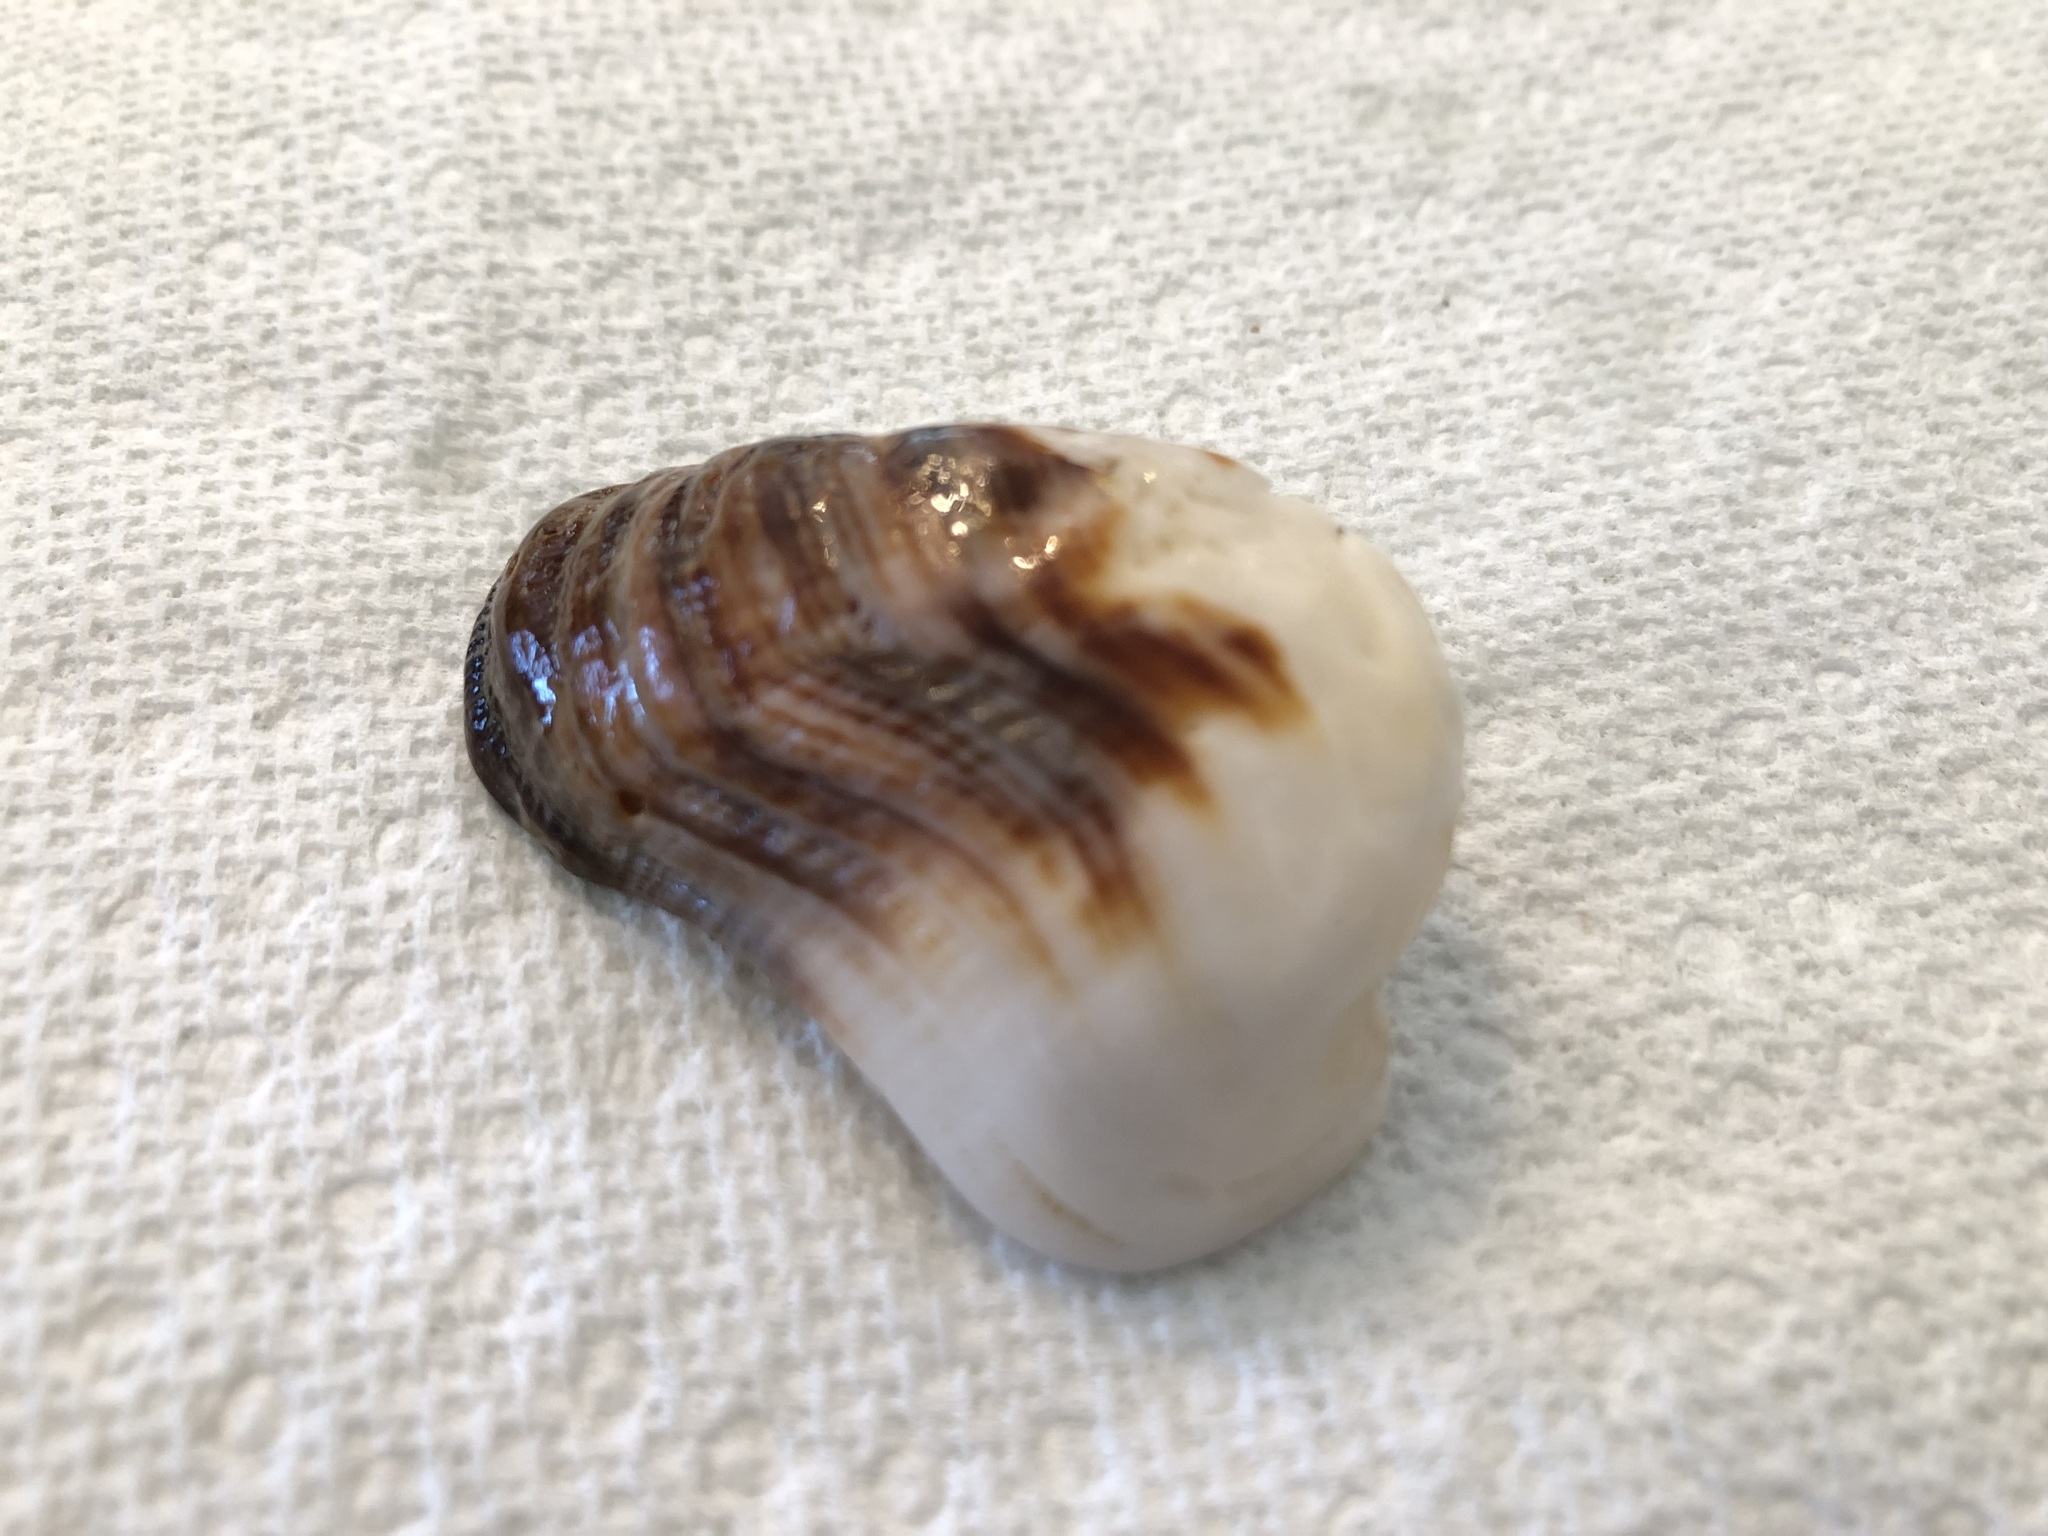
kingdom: Animalia
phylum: Mollusca
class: Bivalvia
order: Arcida
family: Arcidae
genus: Lamarcka
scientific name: Lamarcka imbricata
